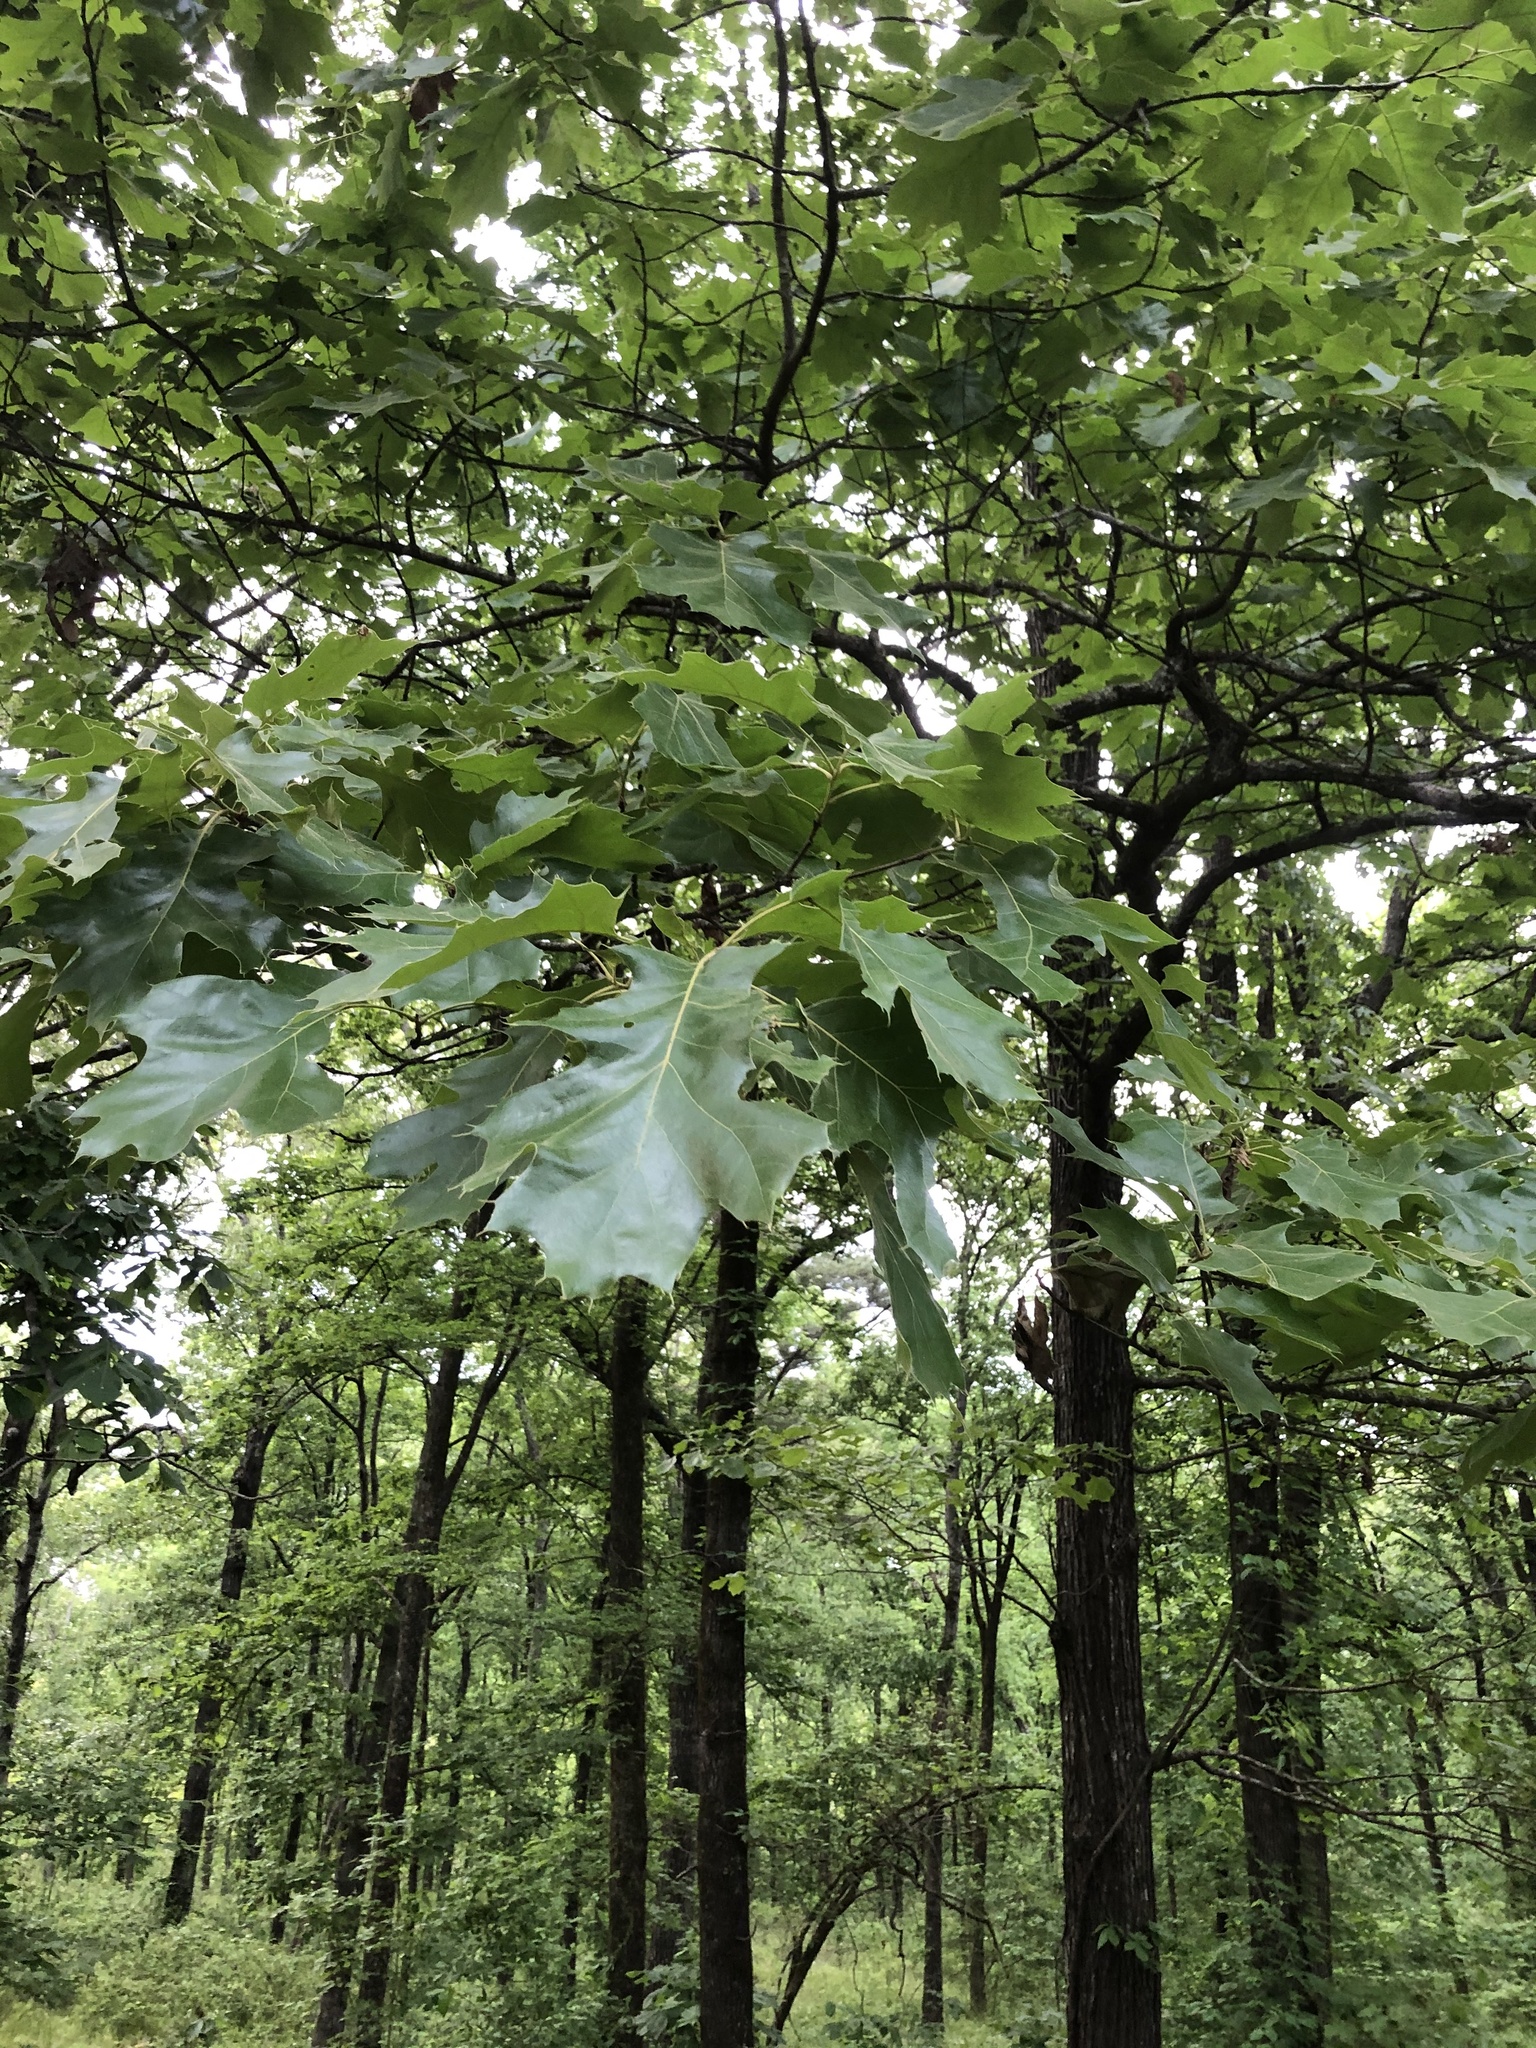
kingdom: Plantae
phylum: Tracheophyta
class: Magnoliopsida
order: Fagales
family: Fagaceae
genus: Quercus
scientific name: Quercus velutina
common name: Black oak
